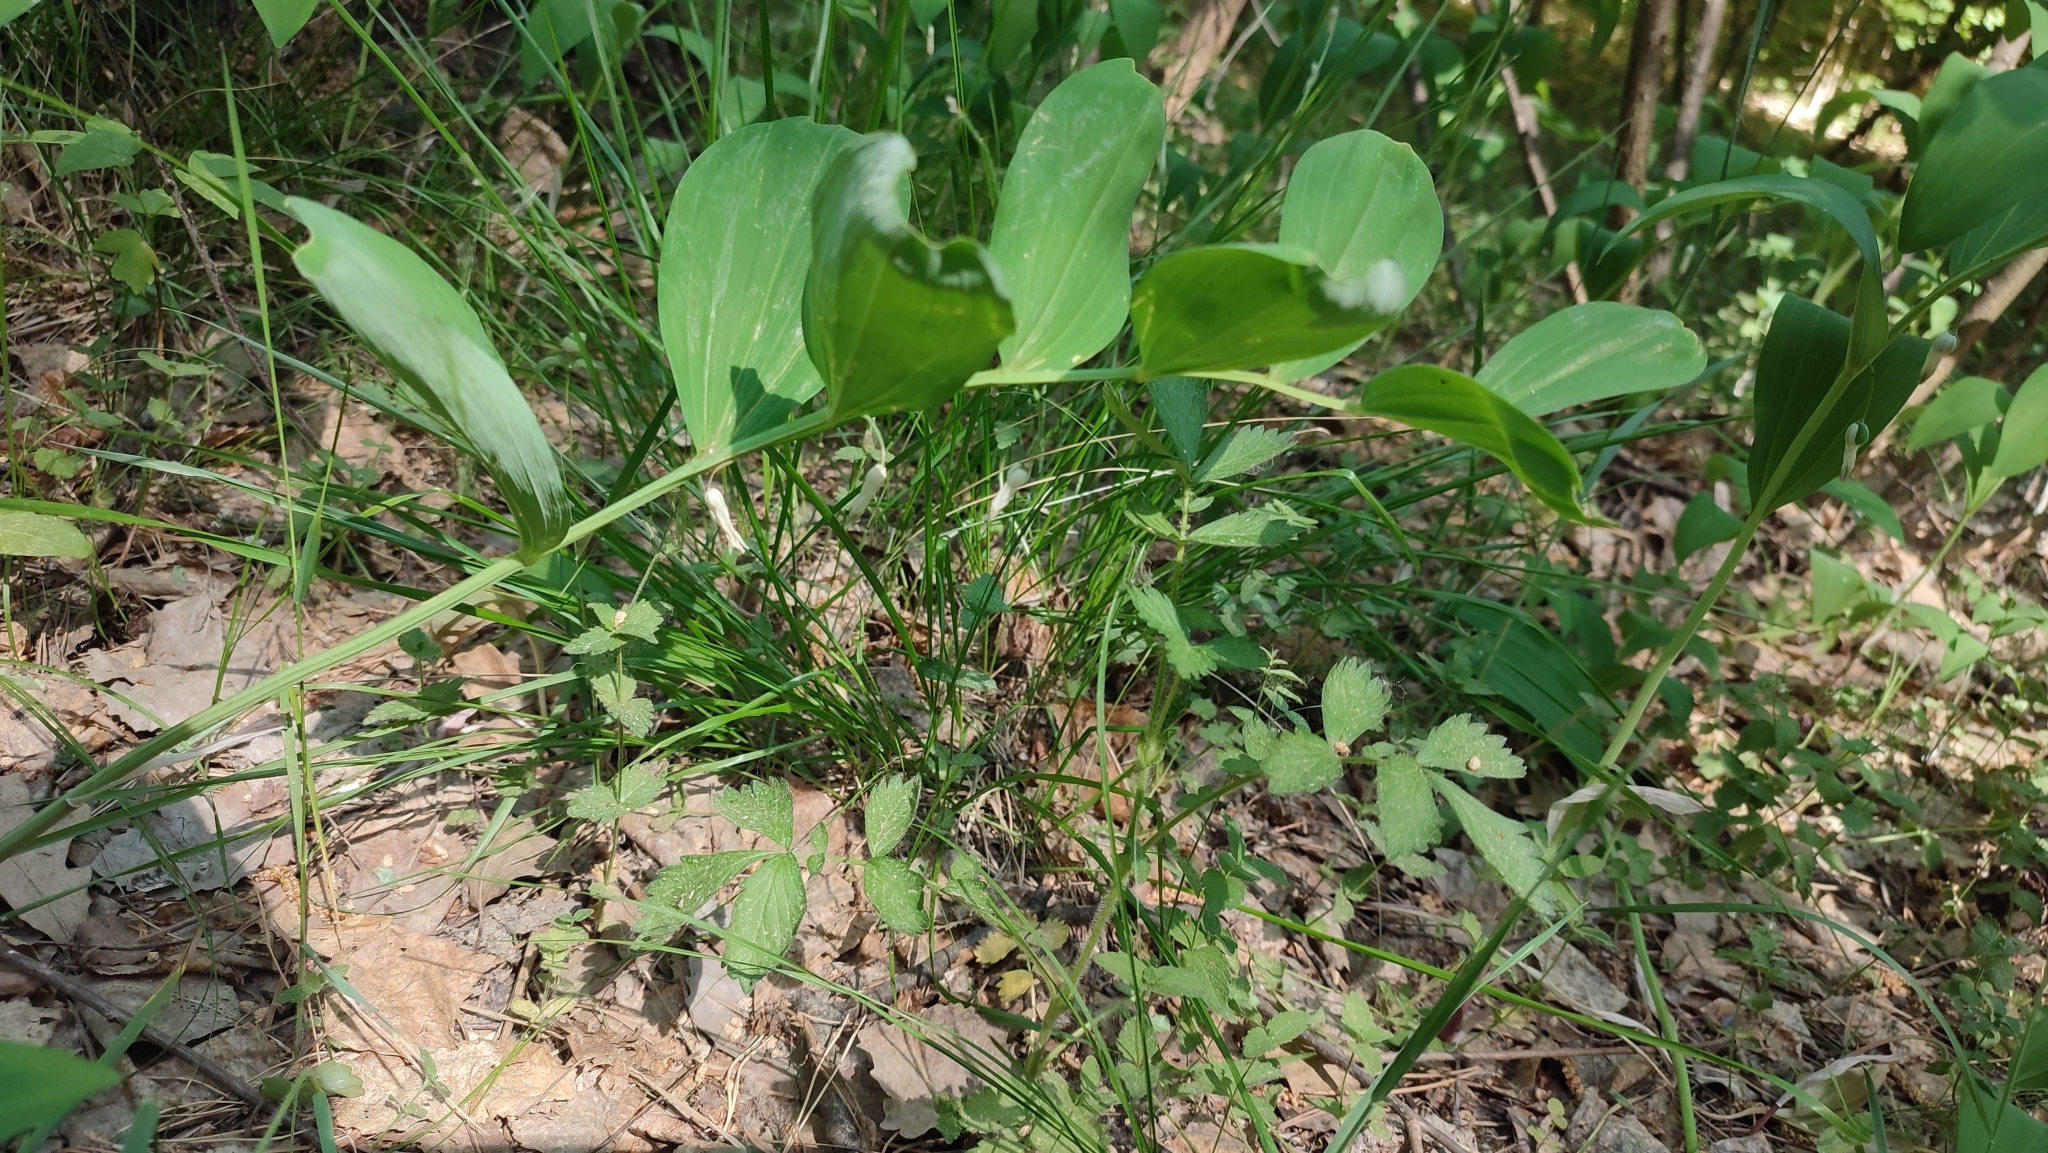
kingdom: Plantae
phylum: Tracheophyta
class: Liliopsida
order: Asparagales
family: Asparagaceae
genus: Polygonatum
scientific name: Polygonatum odoratum
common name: Angular solomon's-seal
